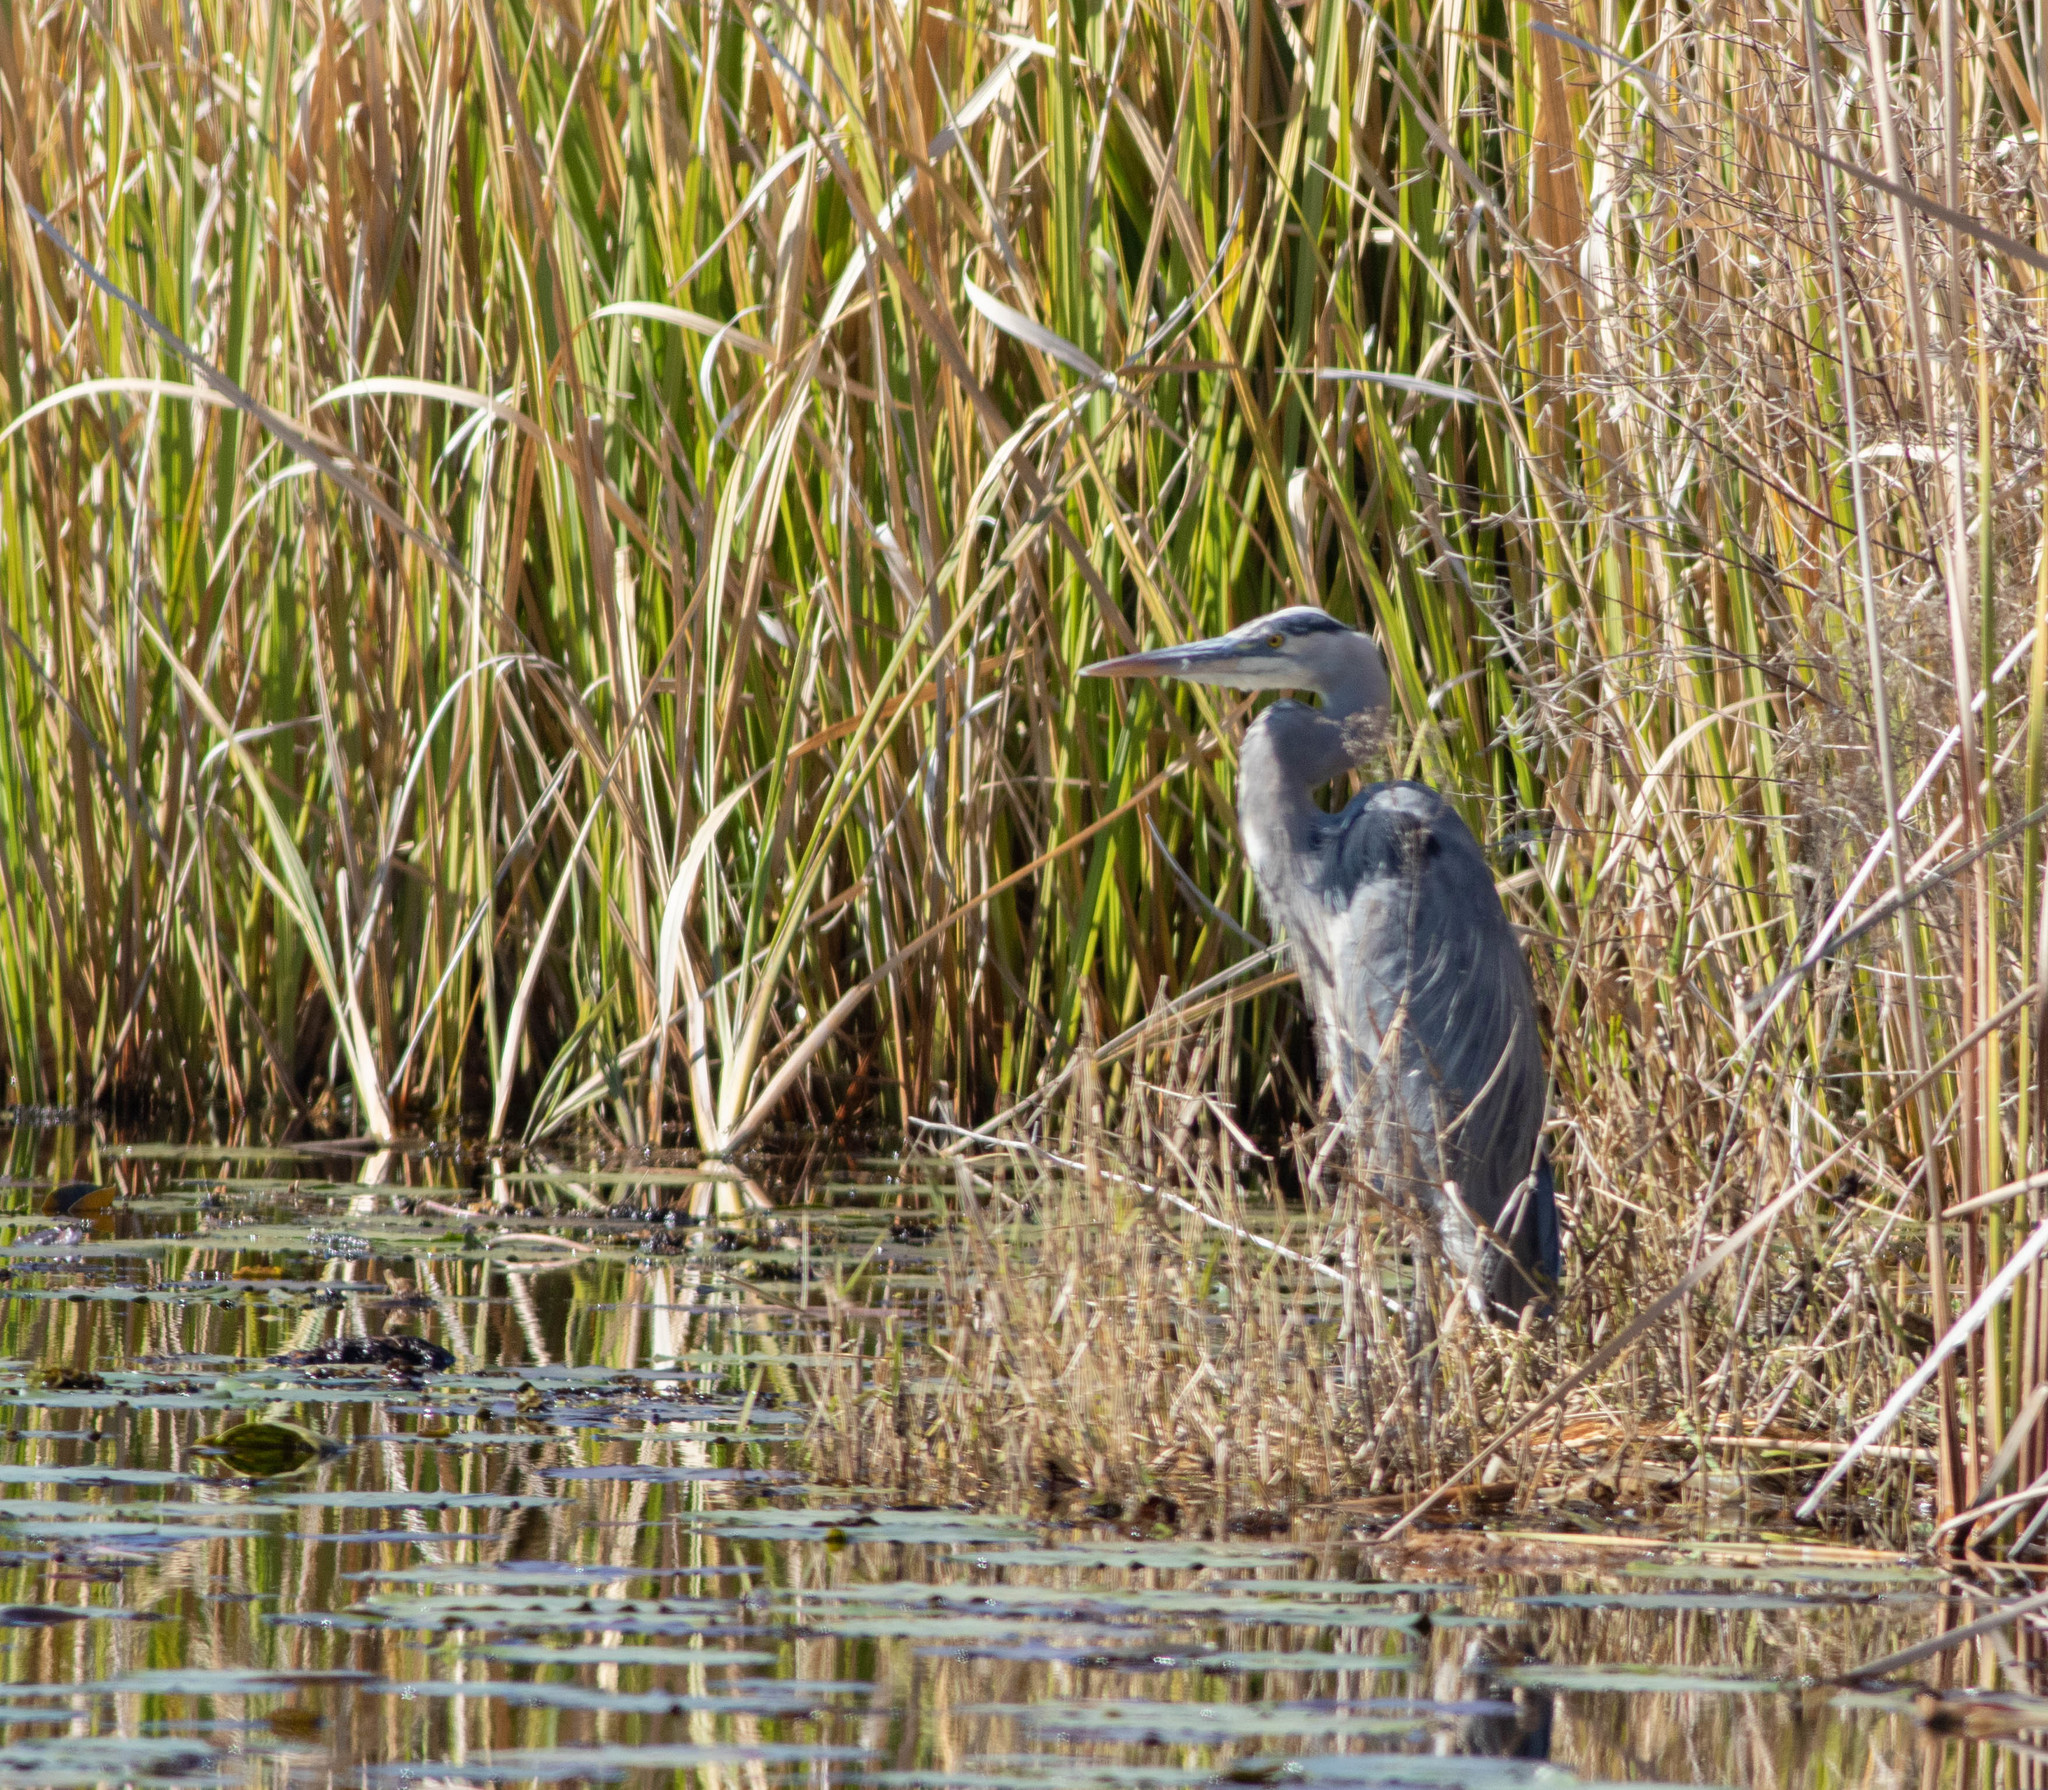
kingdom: Animalia
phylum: Chordata
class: Aves
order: Pelecaniformes
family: Ardeidae
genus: Ardea
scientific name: Ardea herodias
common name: Great blue heron
